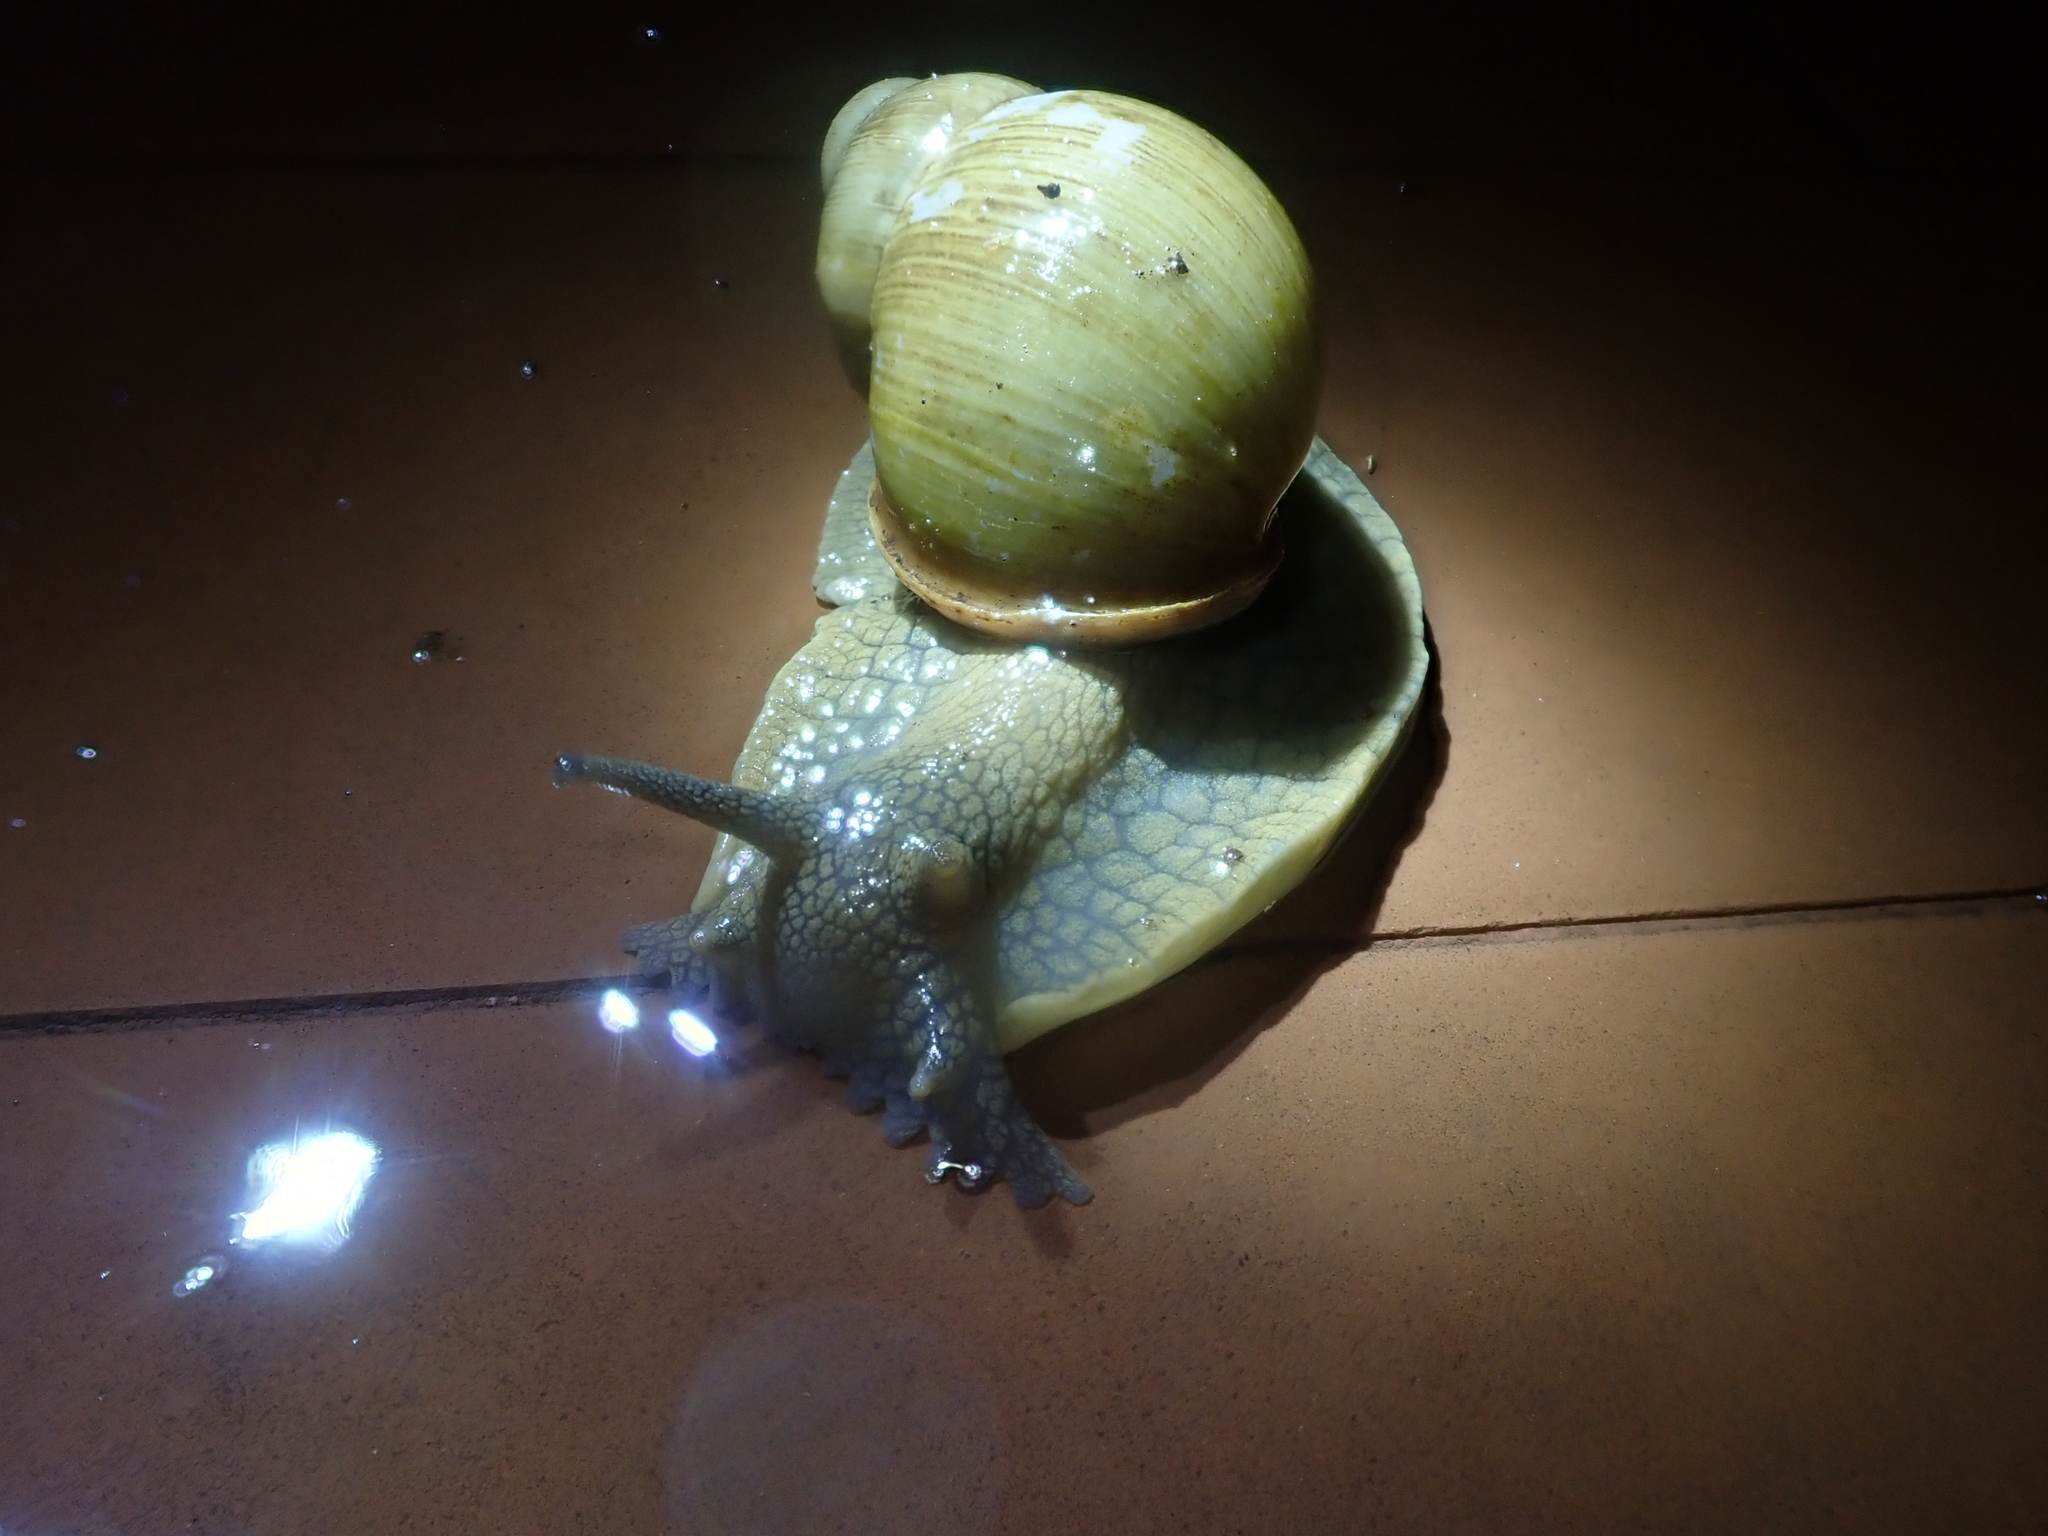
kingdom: Animalia
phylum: Mollusca
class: Gastropoda
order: Stylommatophora
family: Strophocheilidae
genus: Megalobulimus
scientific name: Megalobulimus
